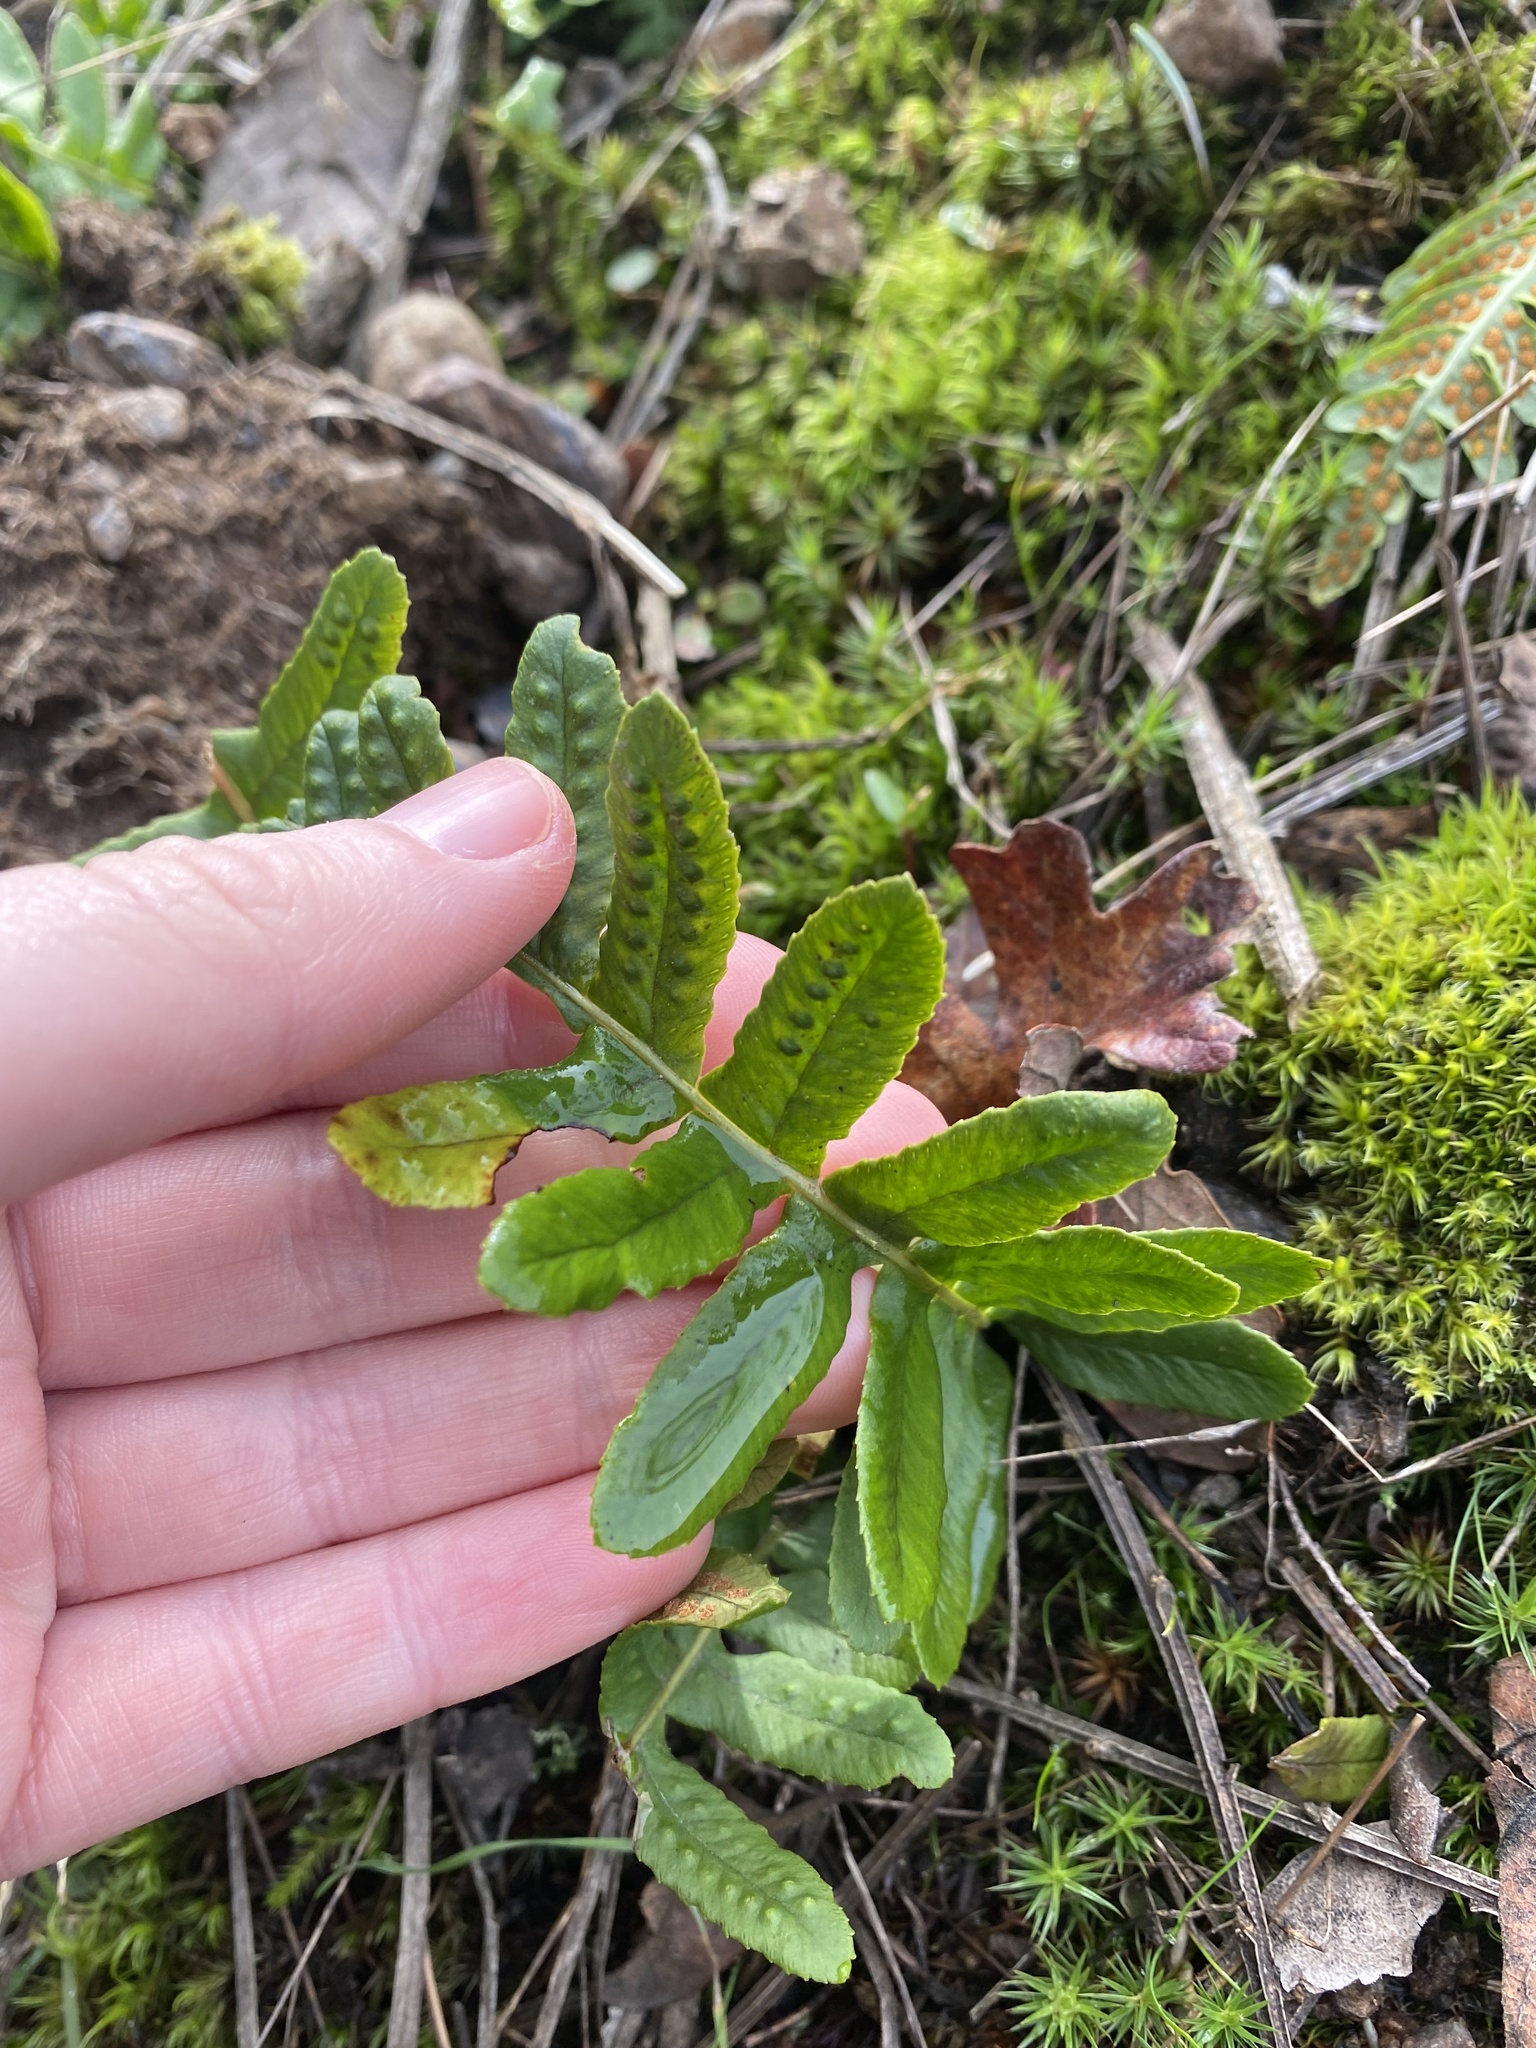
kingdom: Plantae
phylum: Tracheophyta
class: Polypodiopsida
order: Polypodiales
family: Polypodiaceae
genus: Polypodium
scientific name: Polypodium glycyrrhiza
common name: Licorice fern
